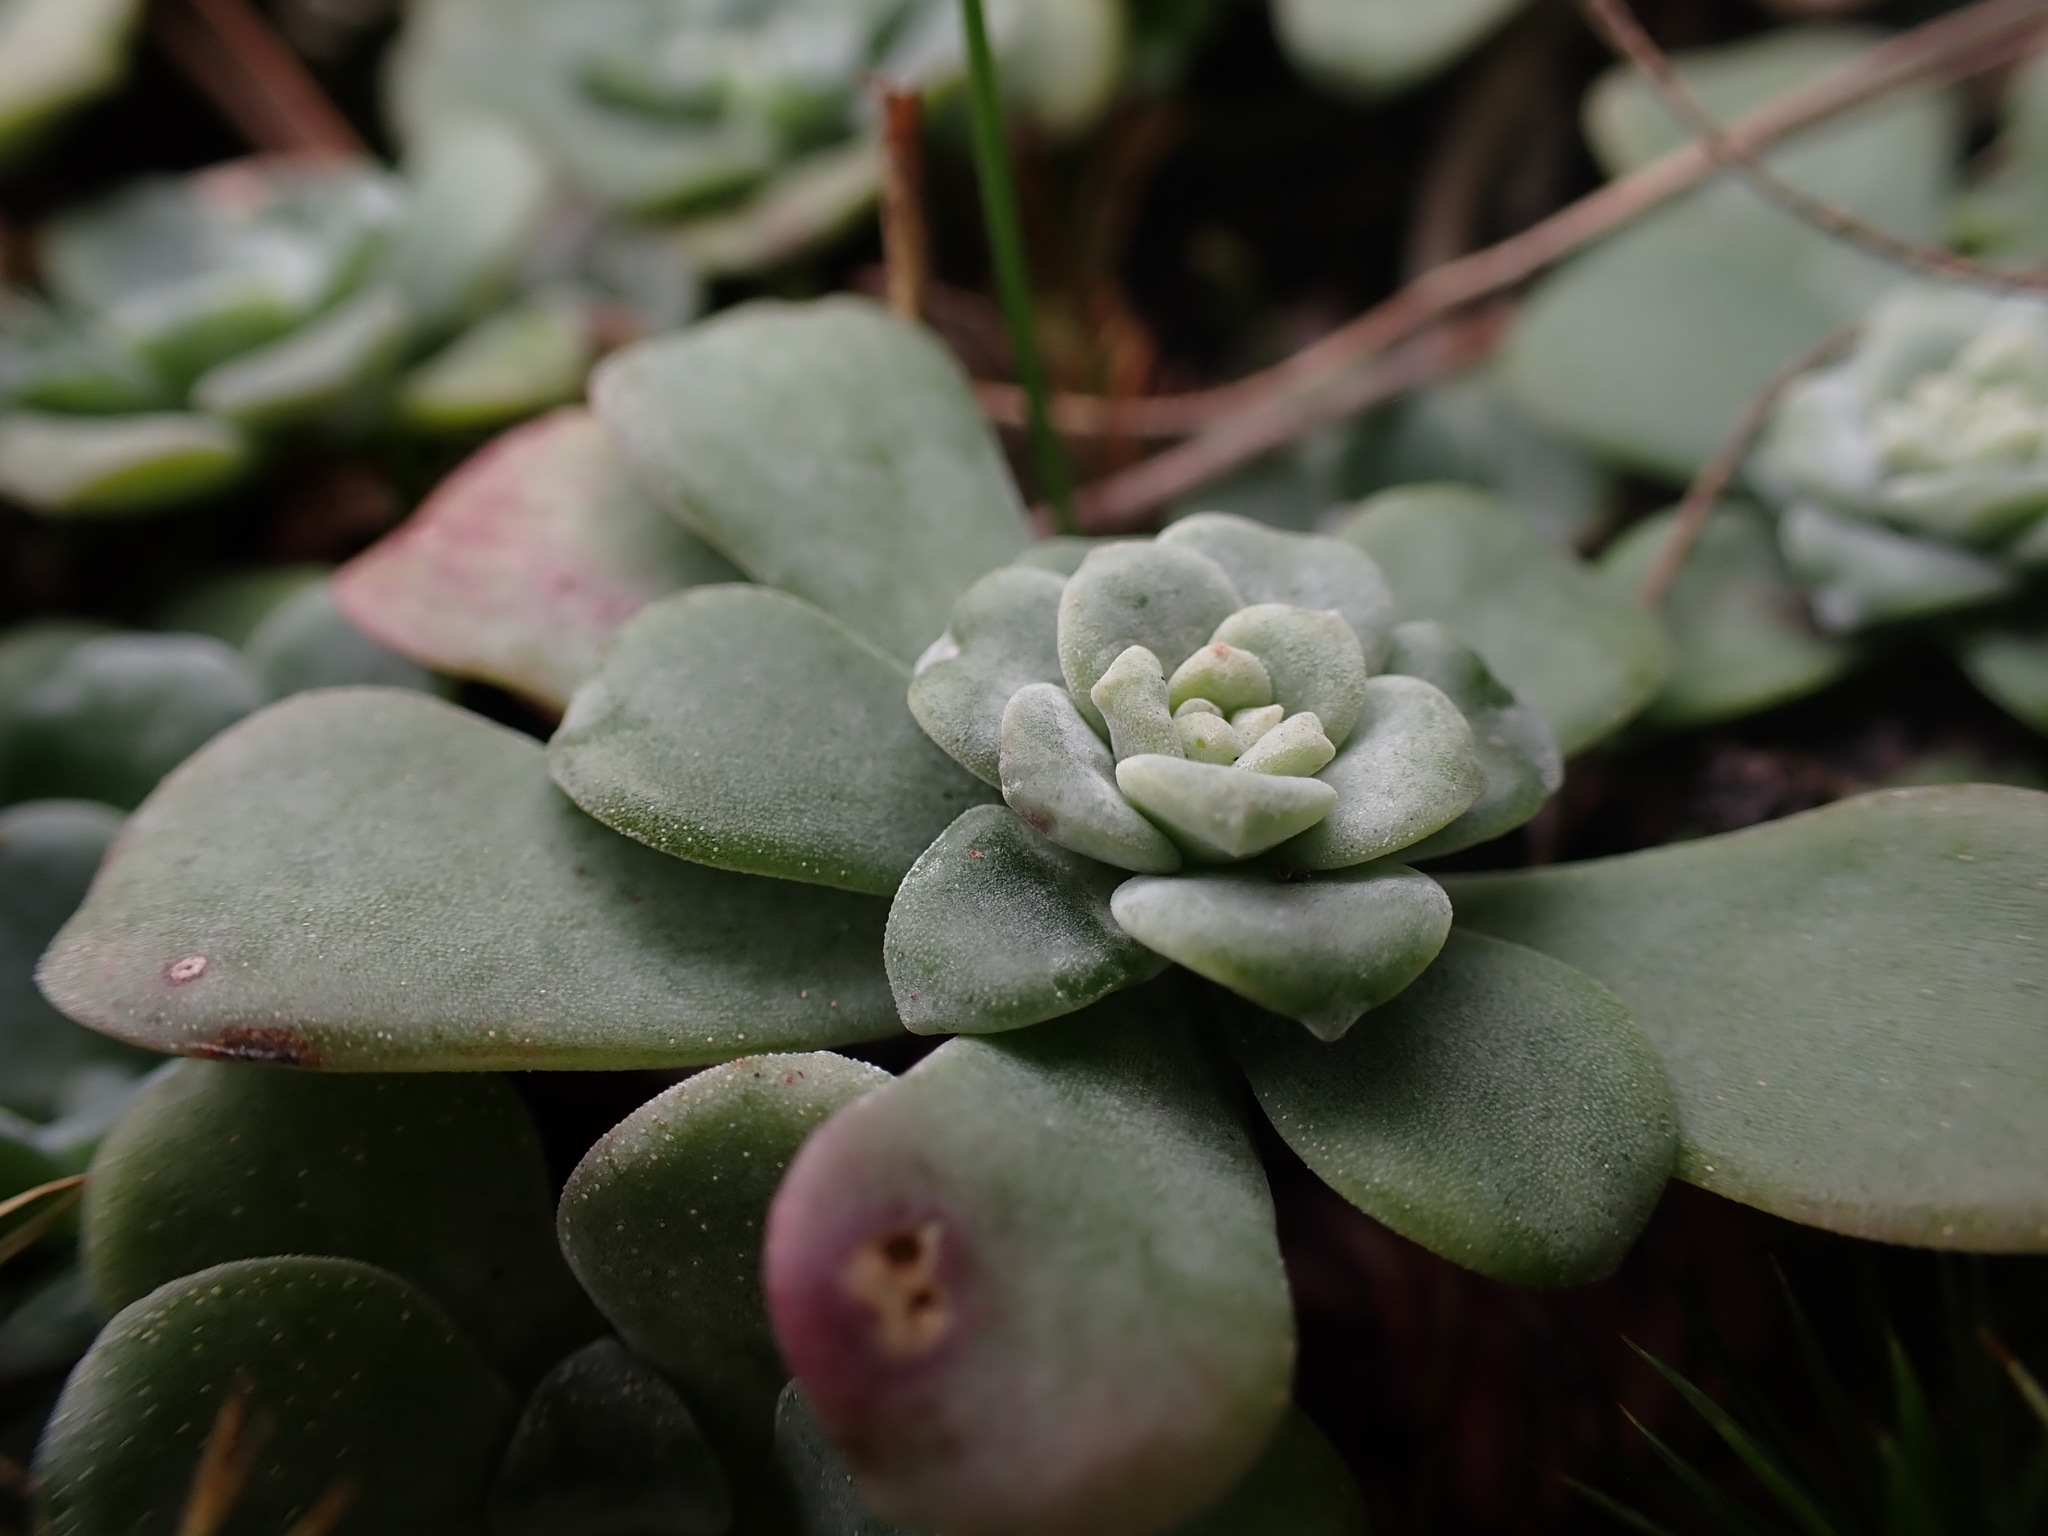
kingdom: Plantae
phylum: Tracheophyta
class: Magnoliopsida
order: Saxifragales
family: Crassulaceae
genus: Sedum
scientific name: Sedum spathulifolium
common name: Colorado stonecrop
